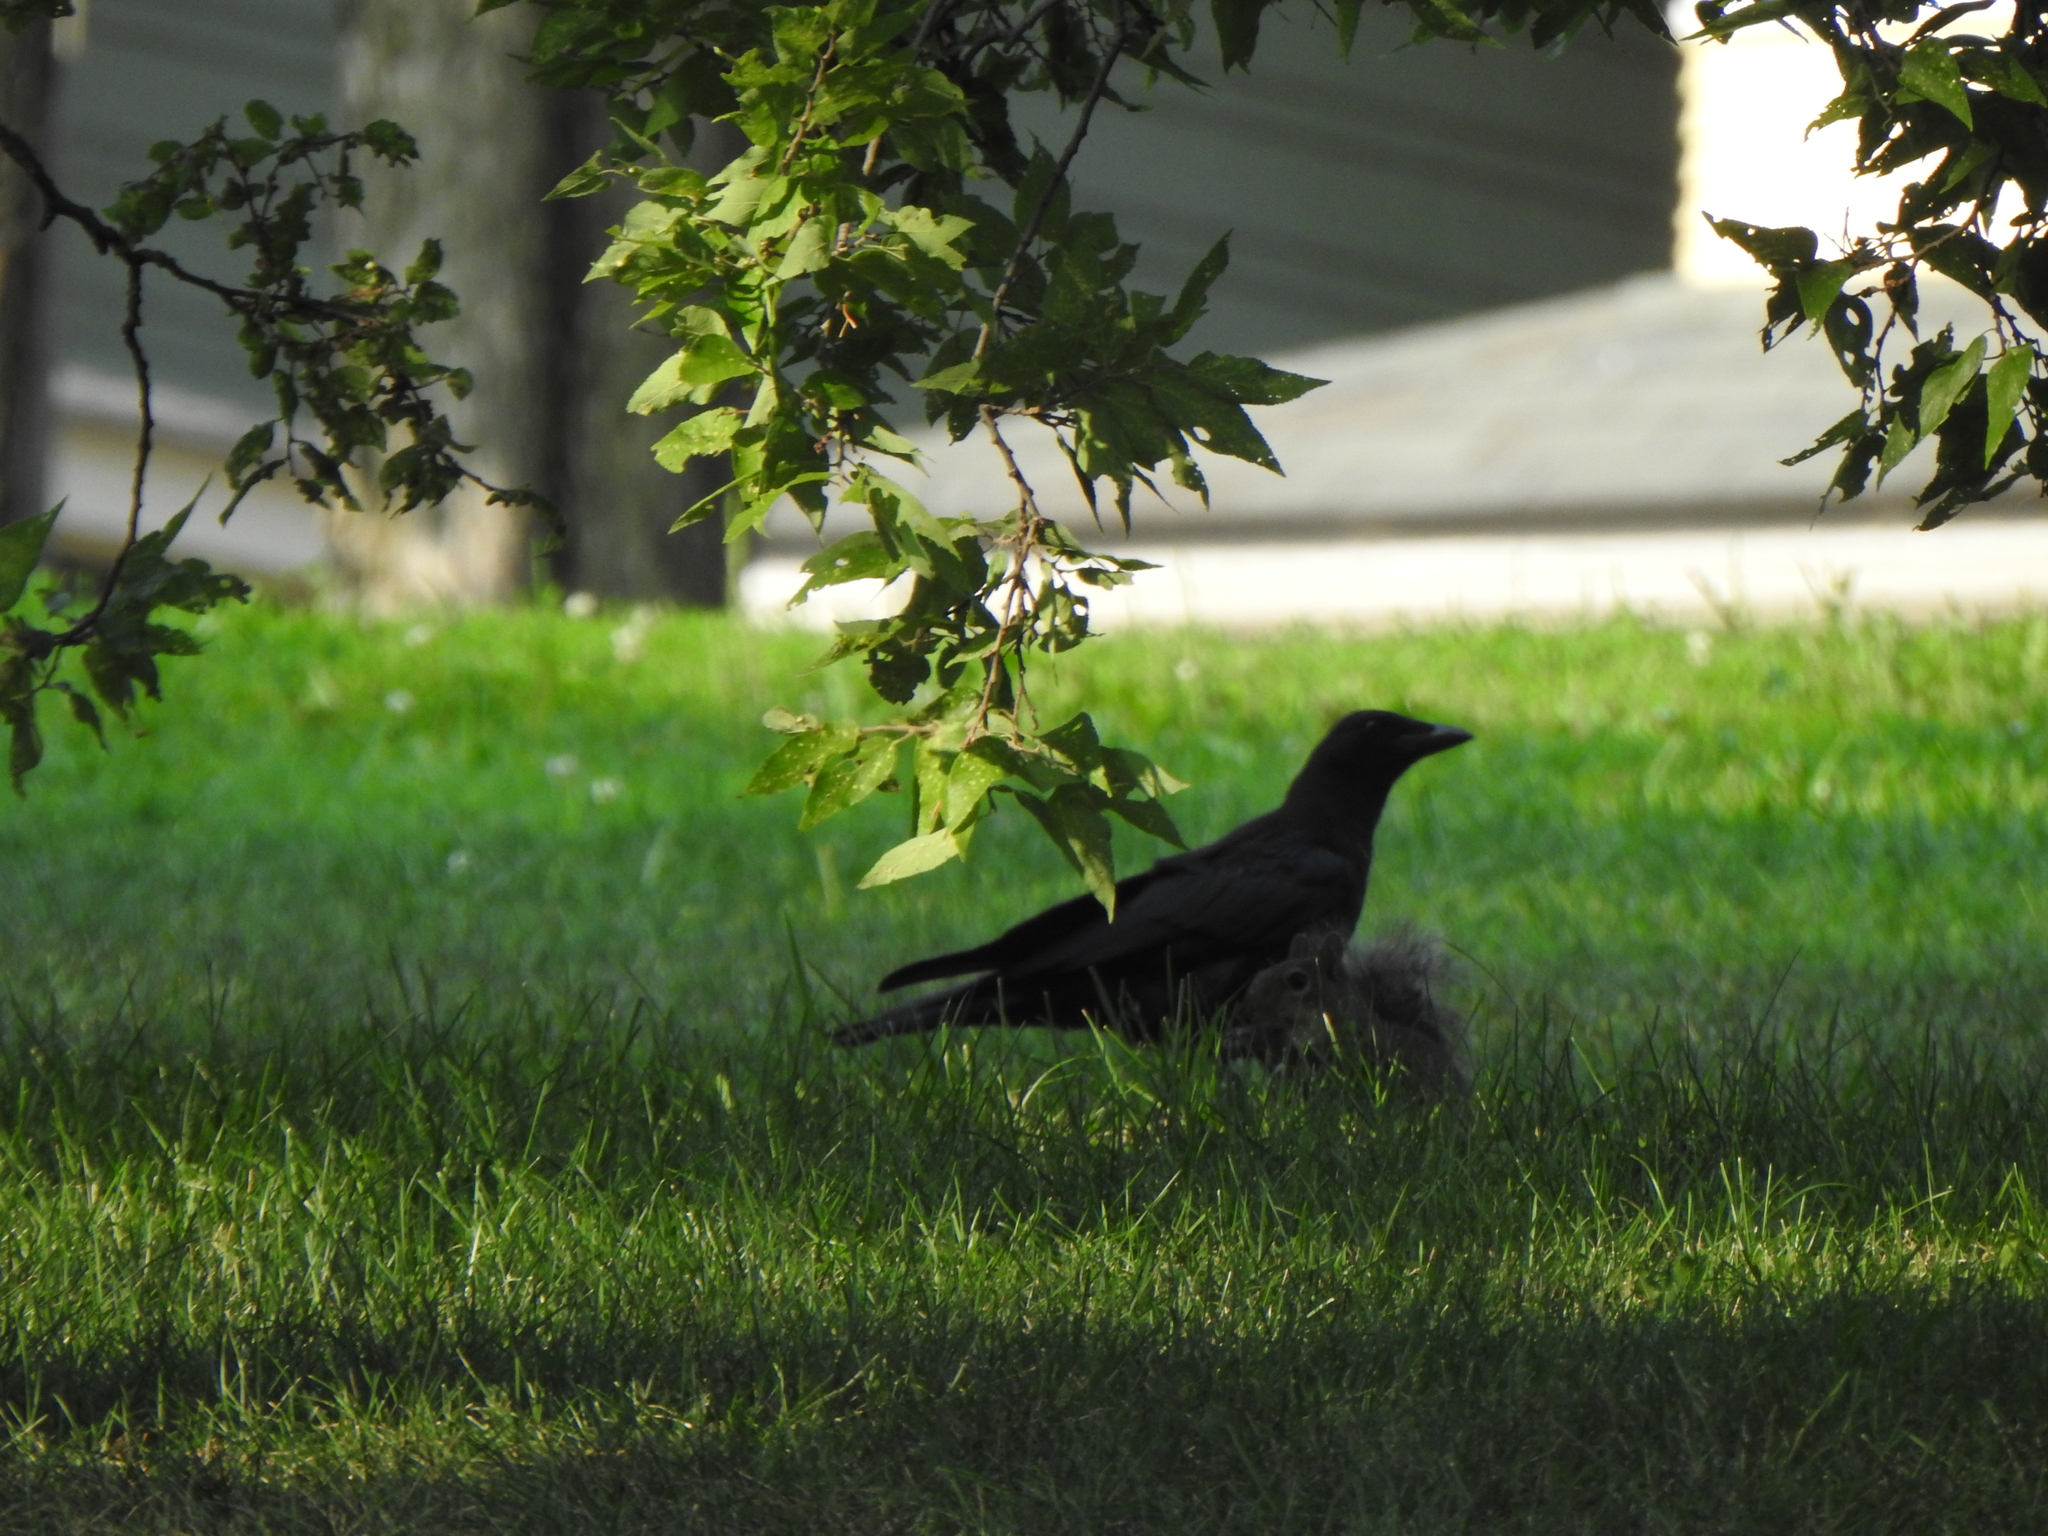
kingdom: Animalia
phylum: Chordata
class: Aves
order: Passeriformes
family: Corvidae
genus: Corvus
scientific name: Corvus brachyrhynchos
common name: American crow
